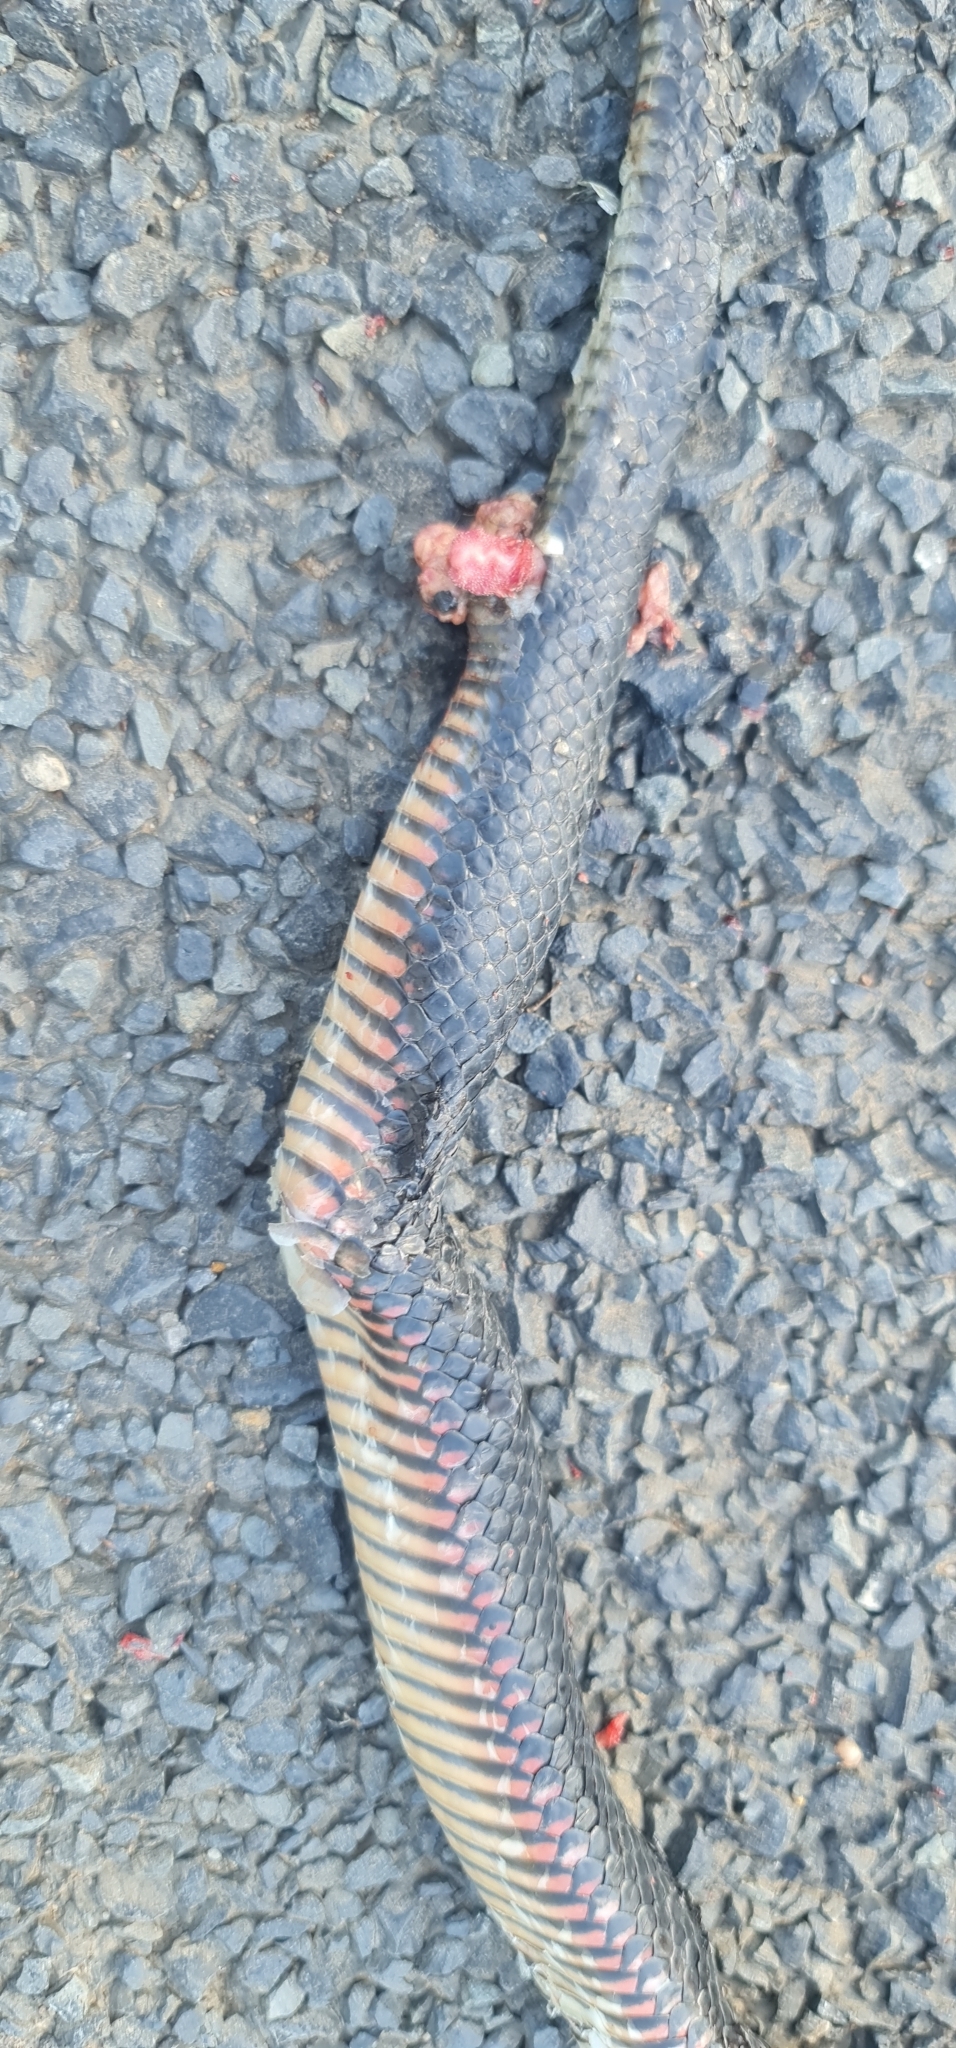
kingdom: Animalia
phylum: Chordata
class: Squamata
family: Elapidae
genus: Pseudechis
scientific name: Pseudechis porphyriacus
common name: Australian black snake
